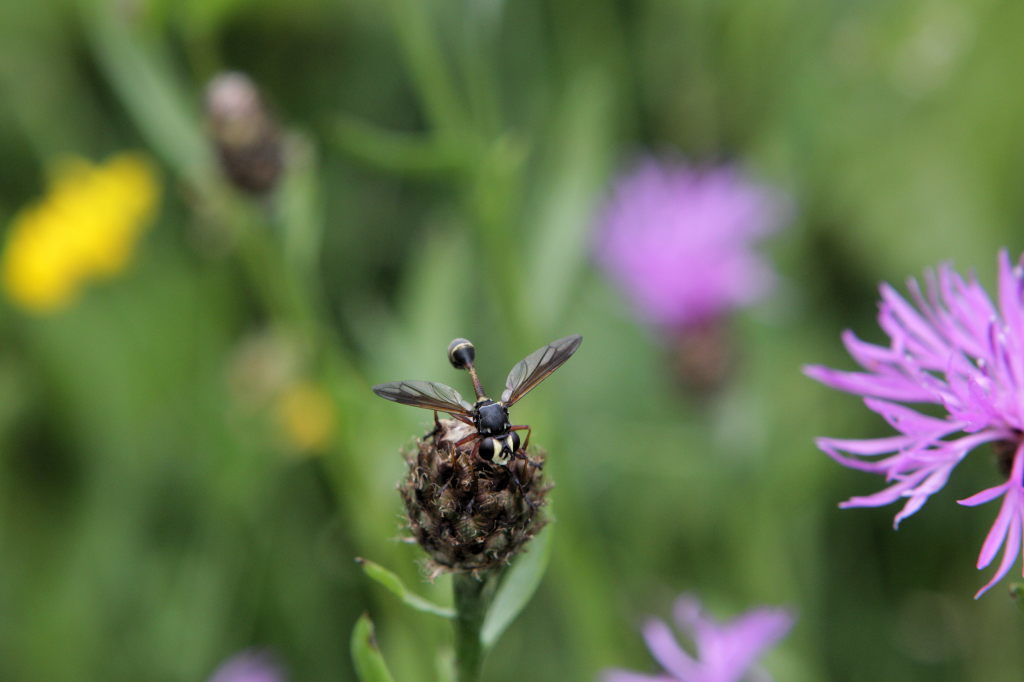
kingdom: Animalia
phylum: Arthropoda
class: Insecta
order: Diptera
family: Conopidae
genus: Physocephala
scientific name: Physocephala rufipes
